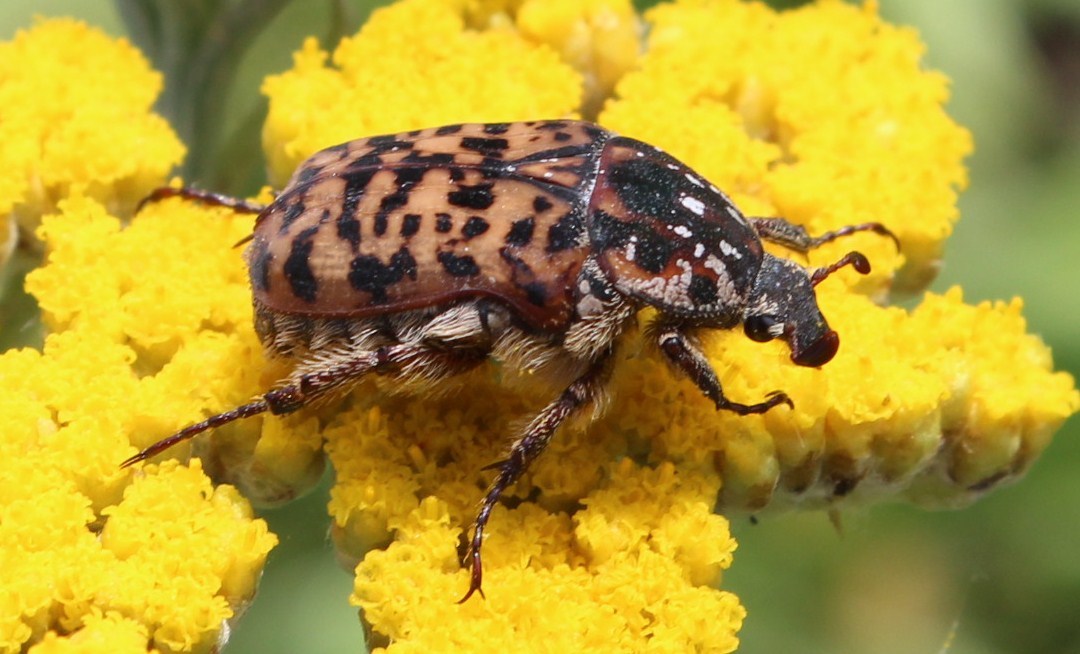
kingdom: Animalia
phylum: Arthropoda
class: Insecta
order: Coleoptera
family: Scarabaeidae
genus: Atrichelaphinis
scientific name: Atrichelaphinis tigrina
